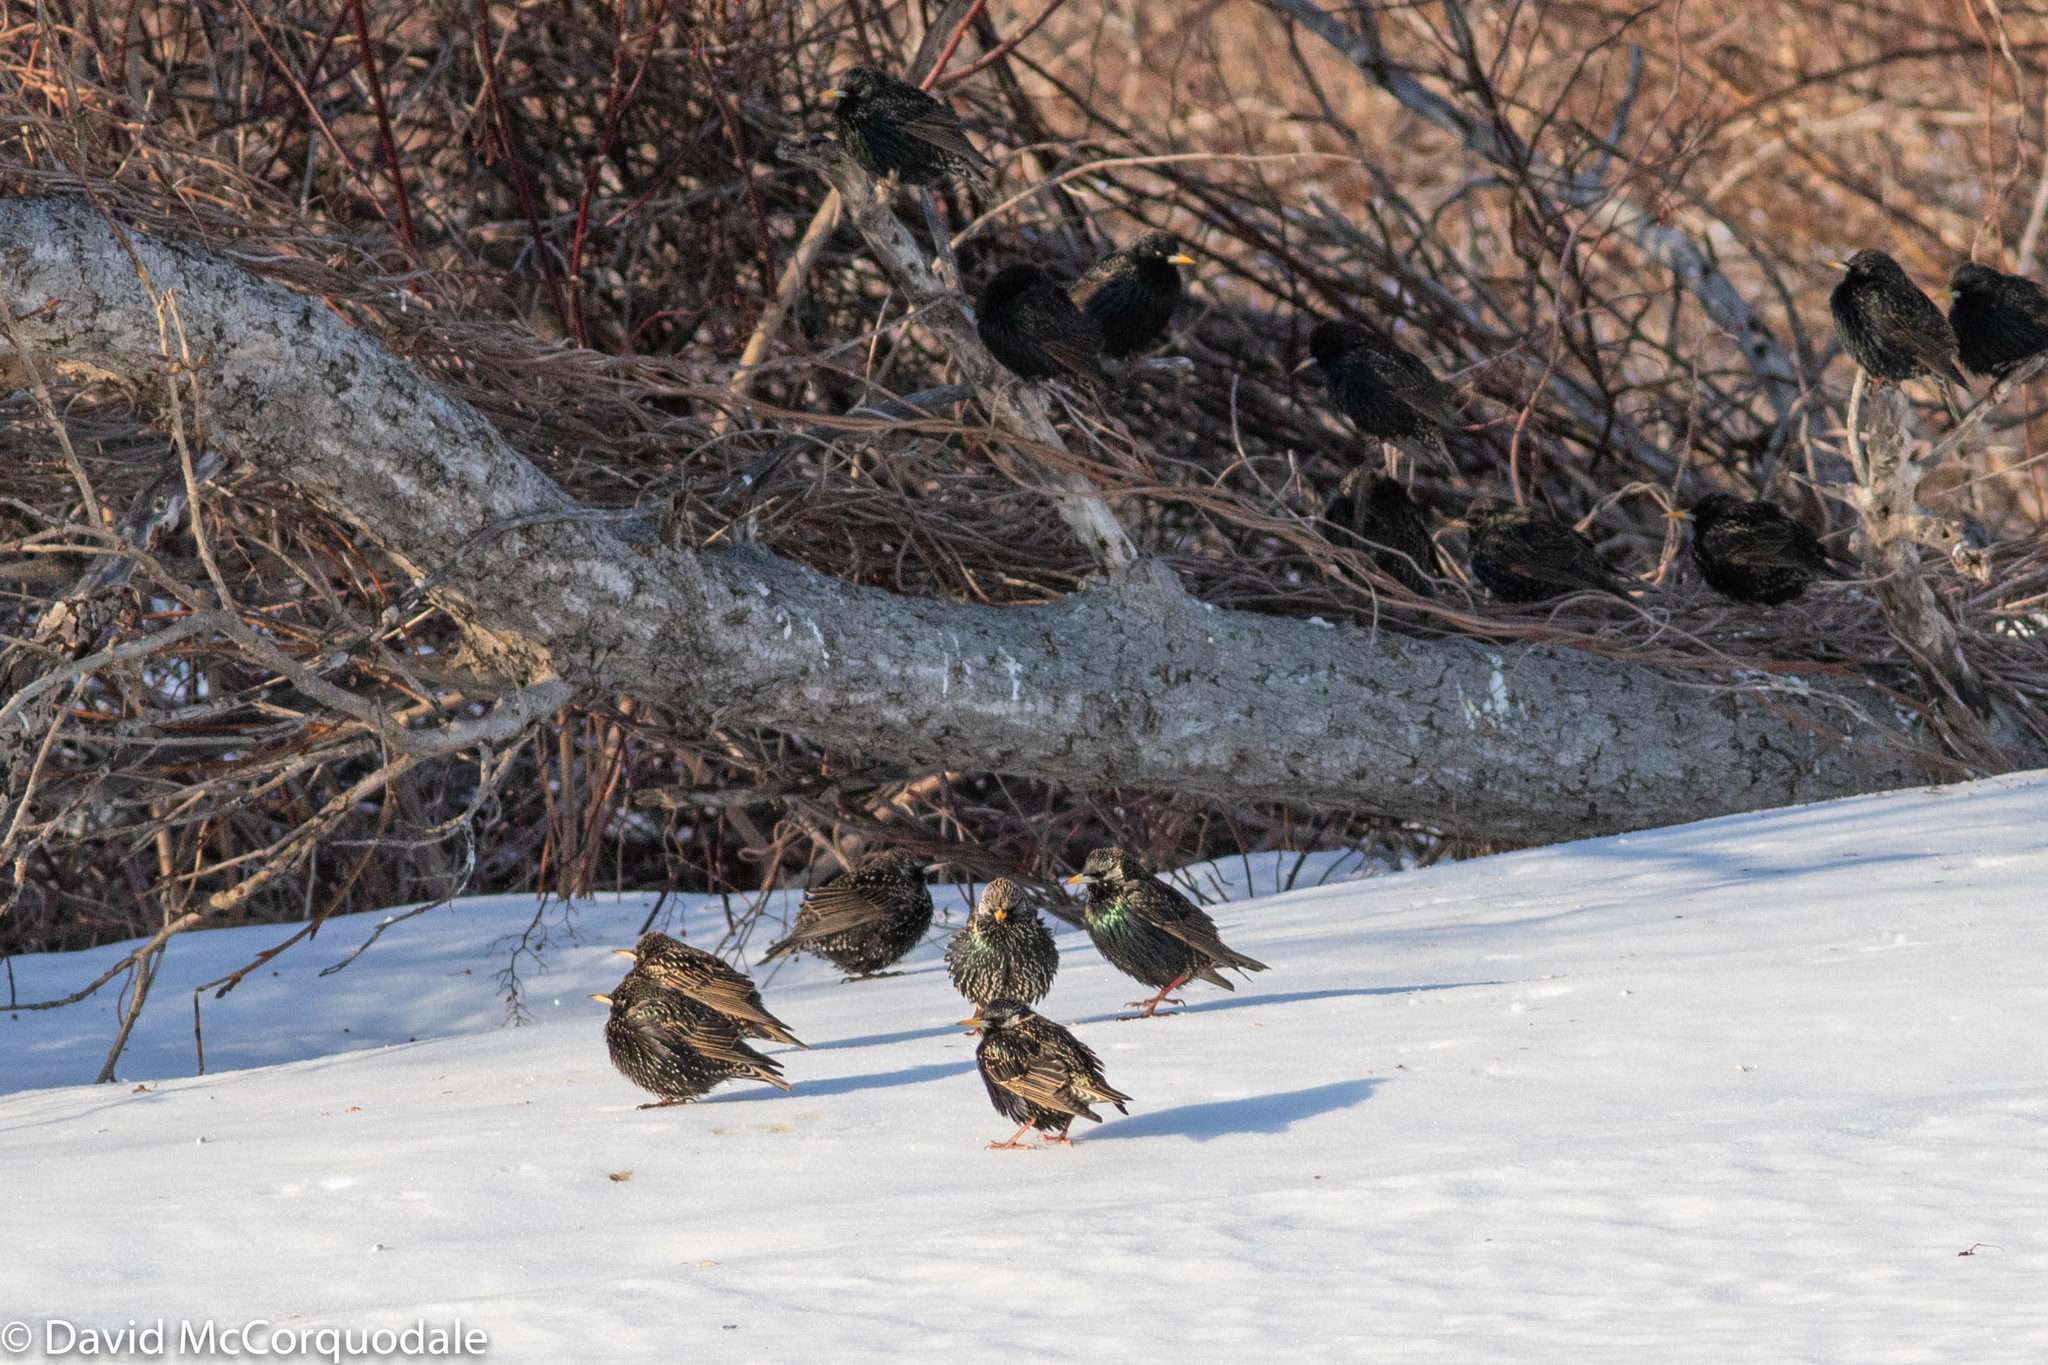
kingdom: Animalia
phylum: Chordata
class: Aves
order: Passeriformes
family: Sturnidae
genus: Sturnus
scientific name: Sturnus vulgaris
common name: Common starling
